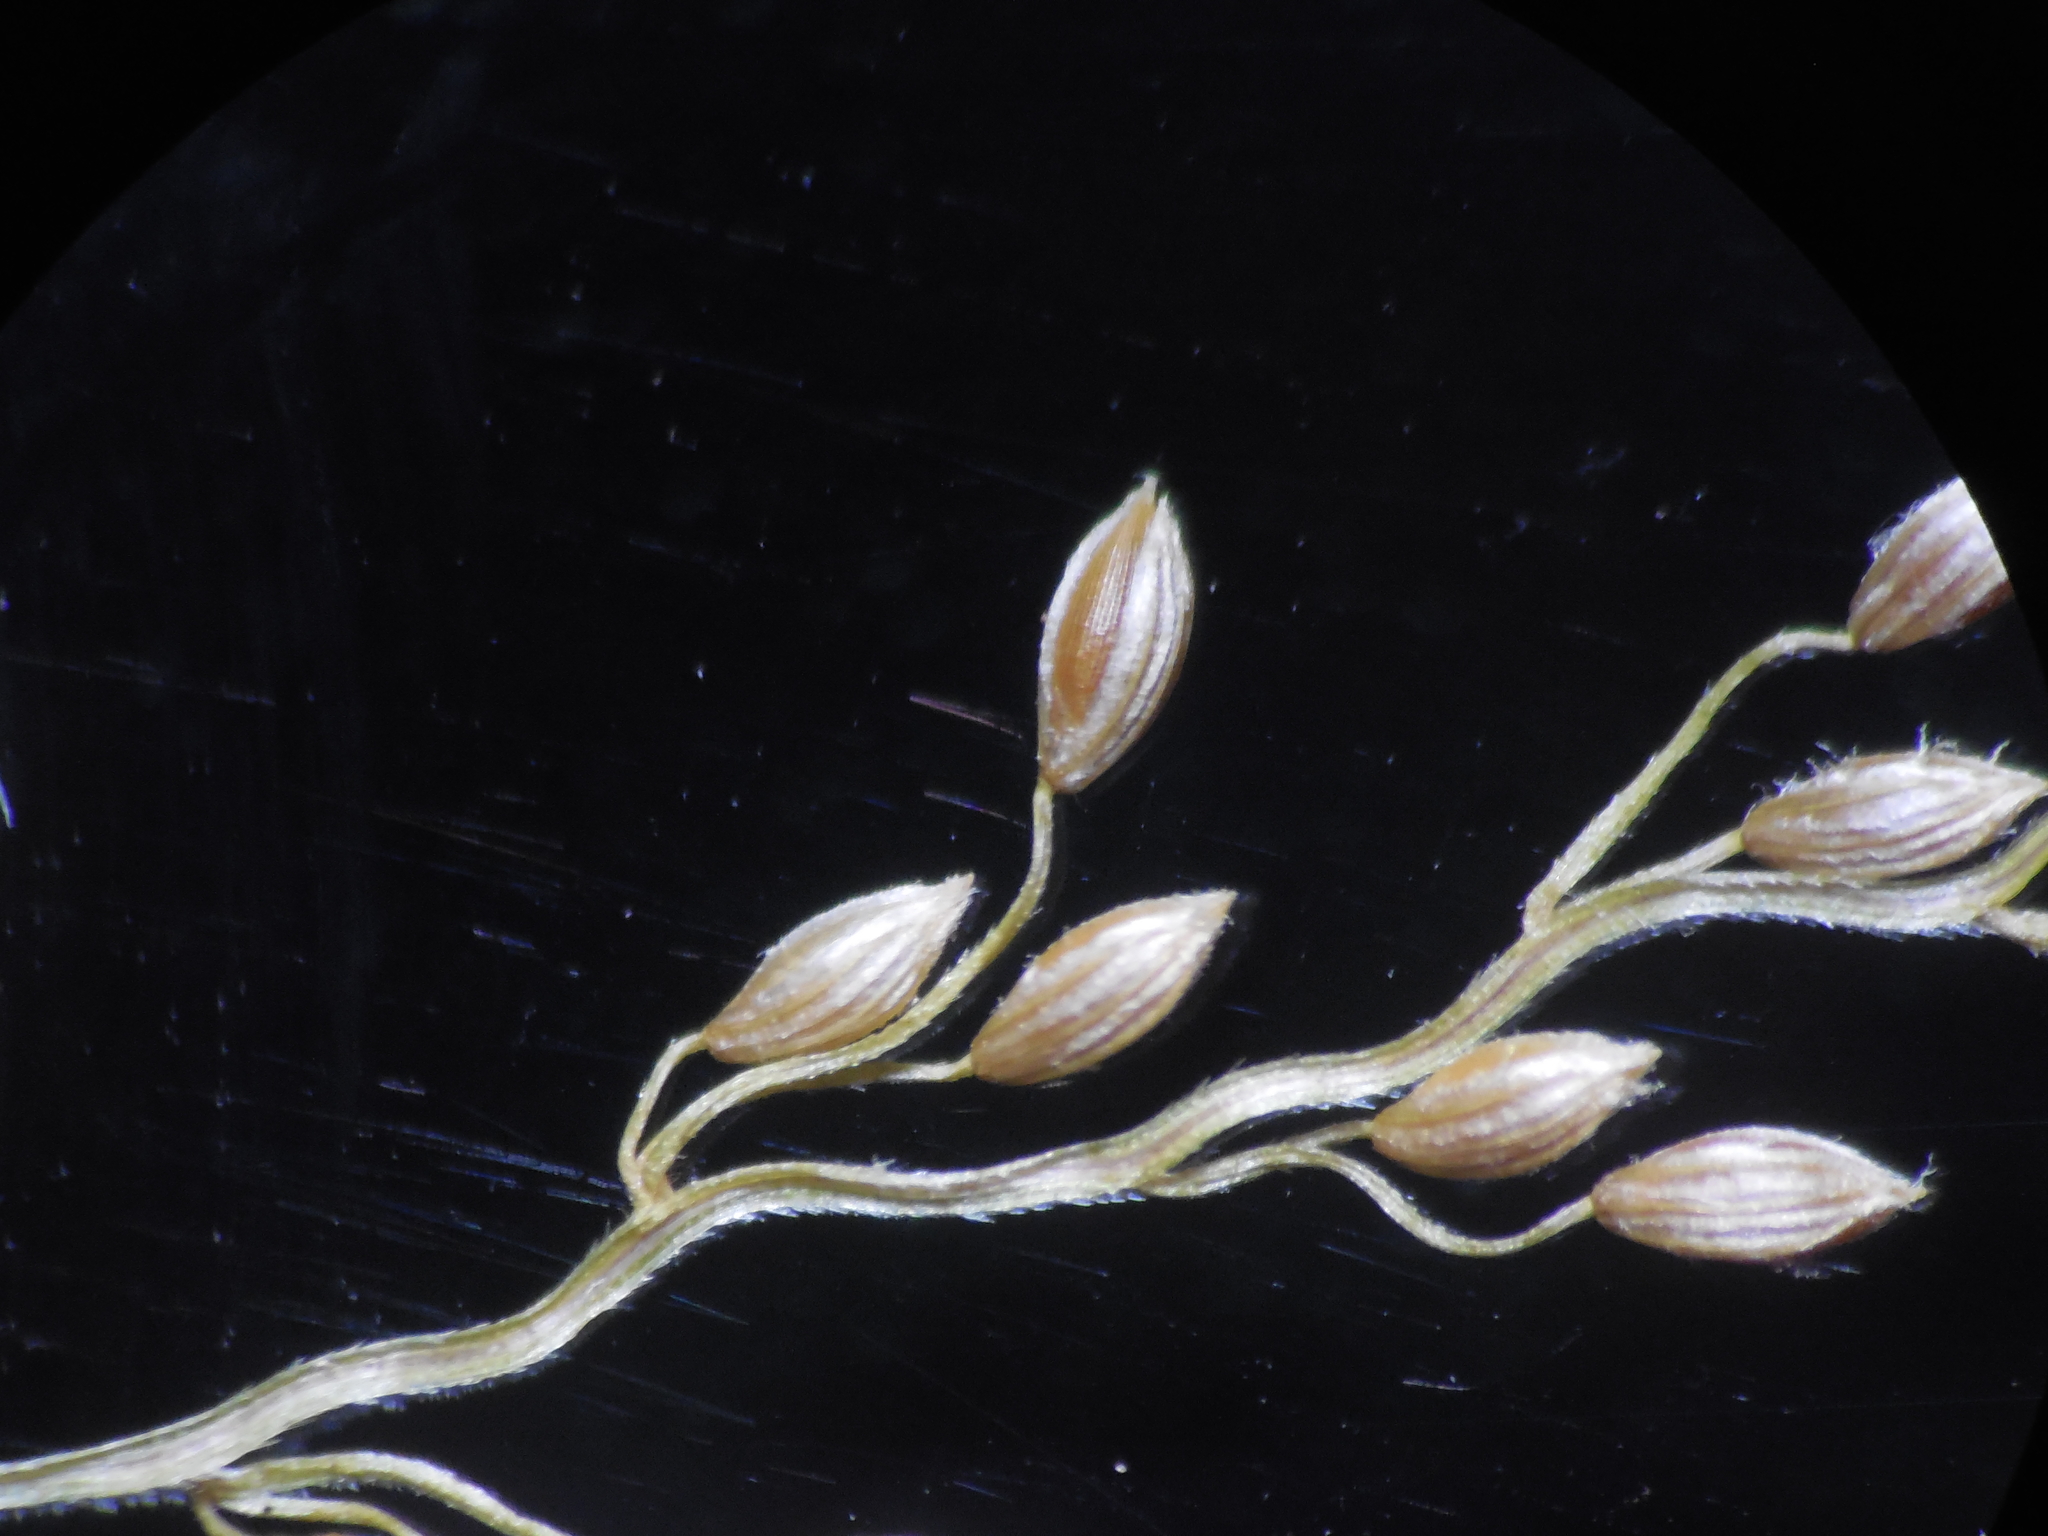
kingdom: Plantae
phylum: Tracheophyta
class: Liliopsida
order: Poales
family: Poaceae
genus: Digitaria
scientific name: Digitaria abludens
